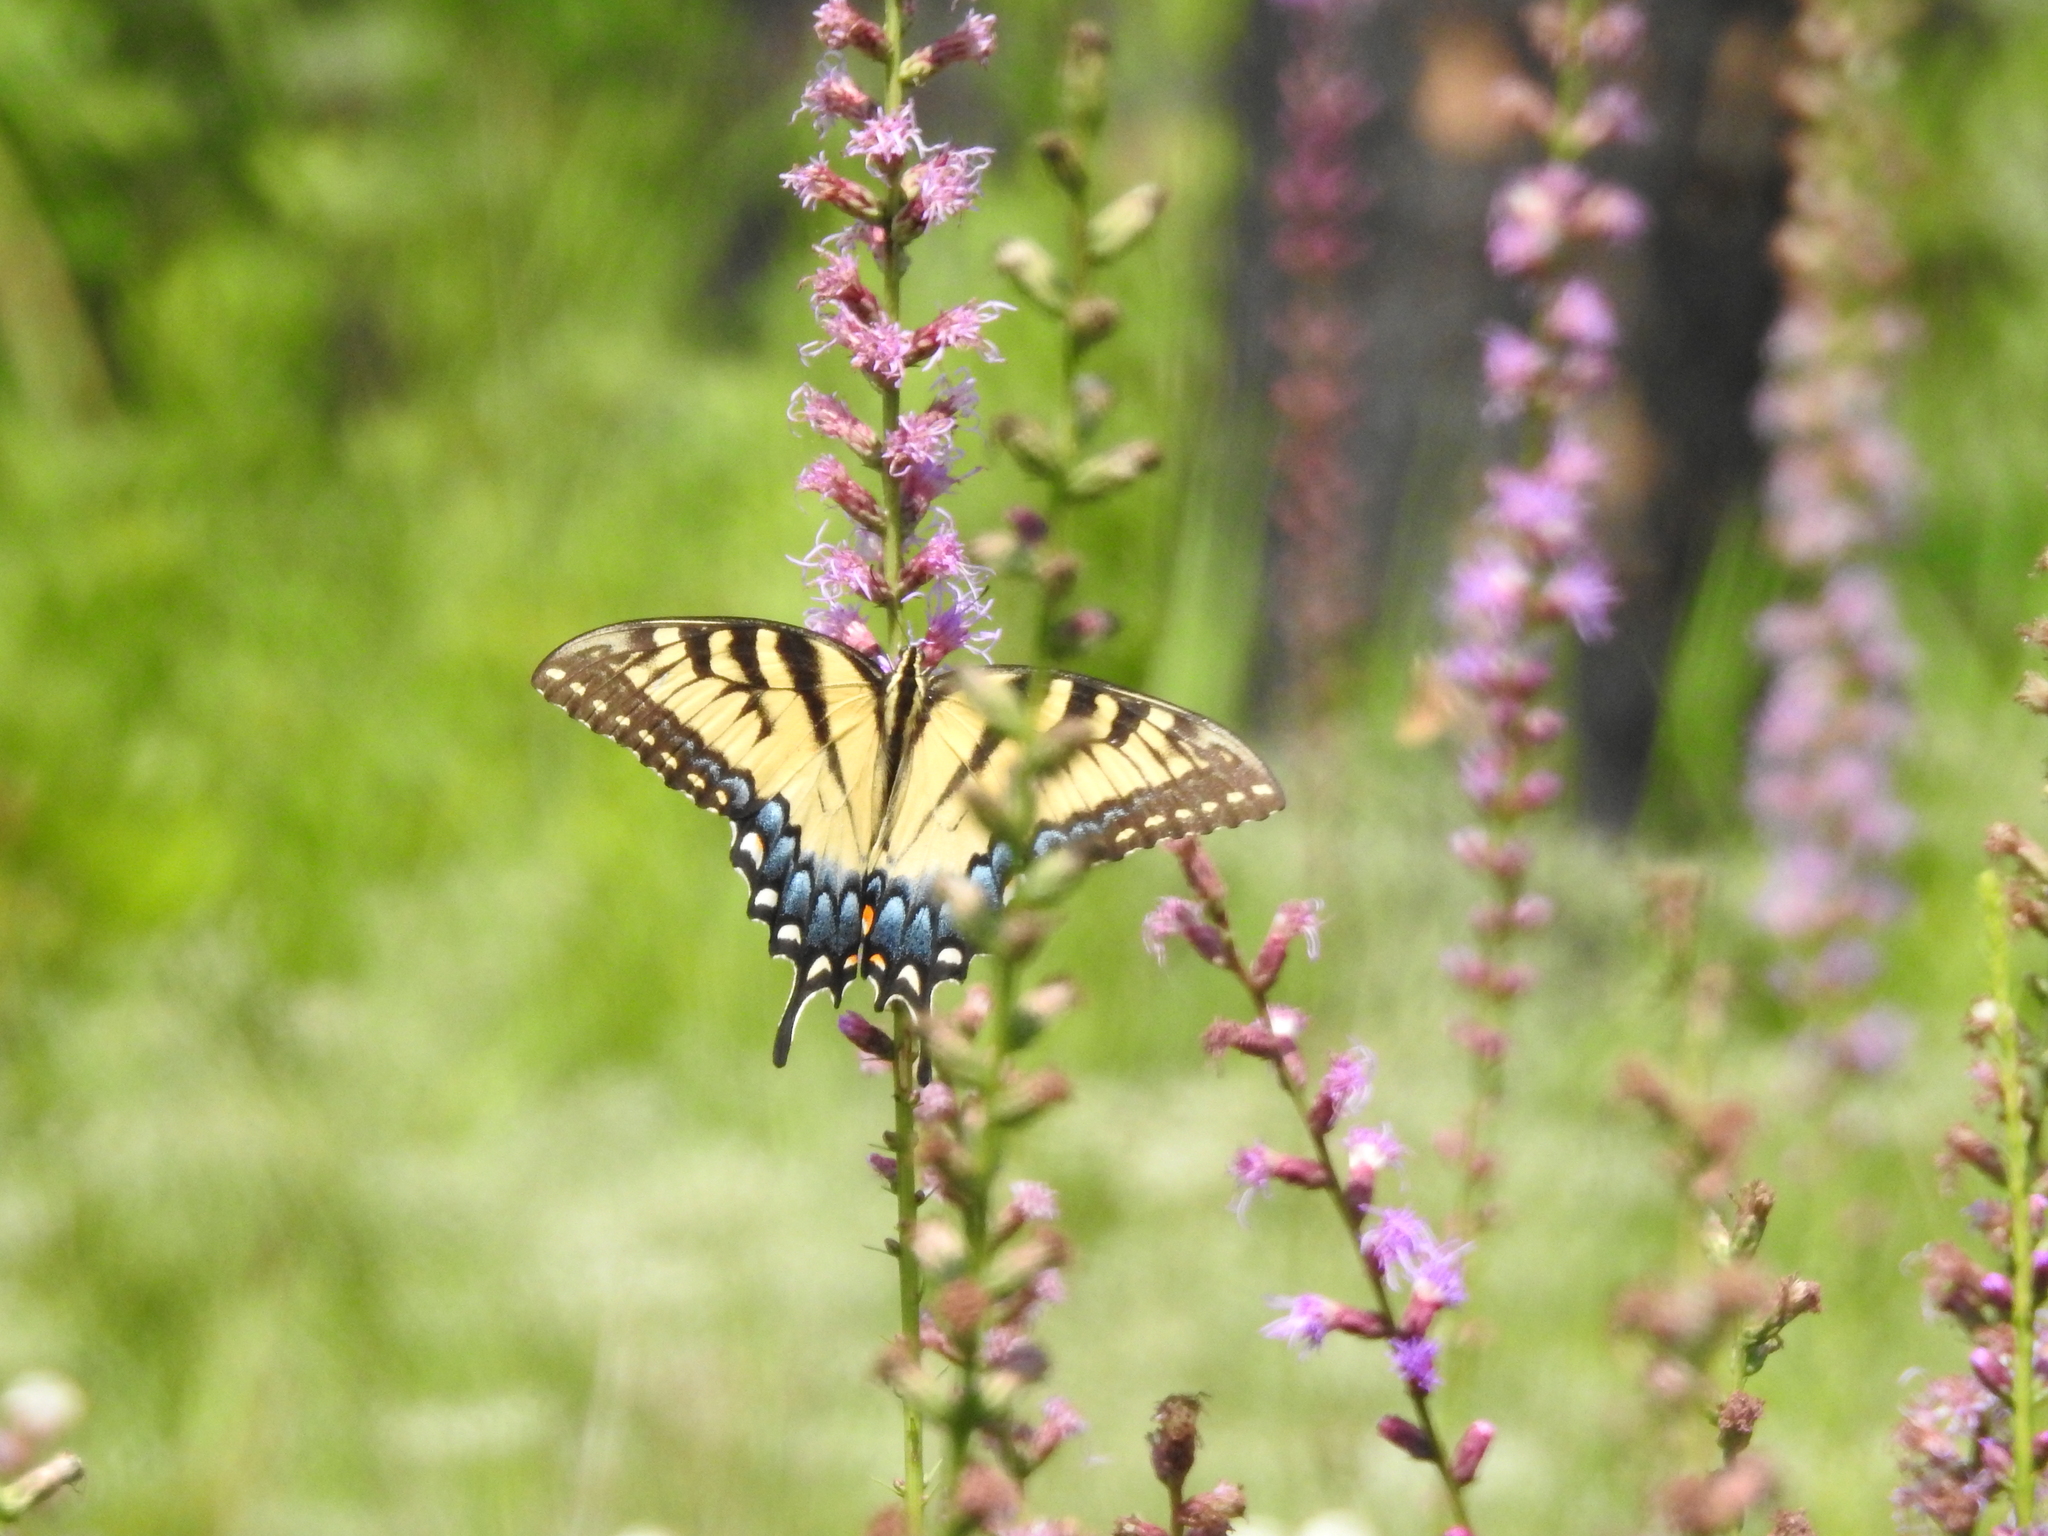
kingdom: Animalia
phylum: Arthropoda
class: Insecta
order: Lepidoptera
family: Papilionidae
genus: Papilio
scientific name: Papilio glaucus
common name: Tiger swallowtail
